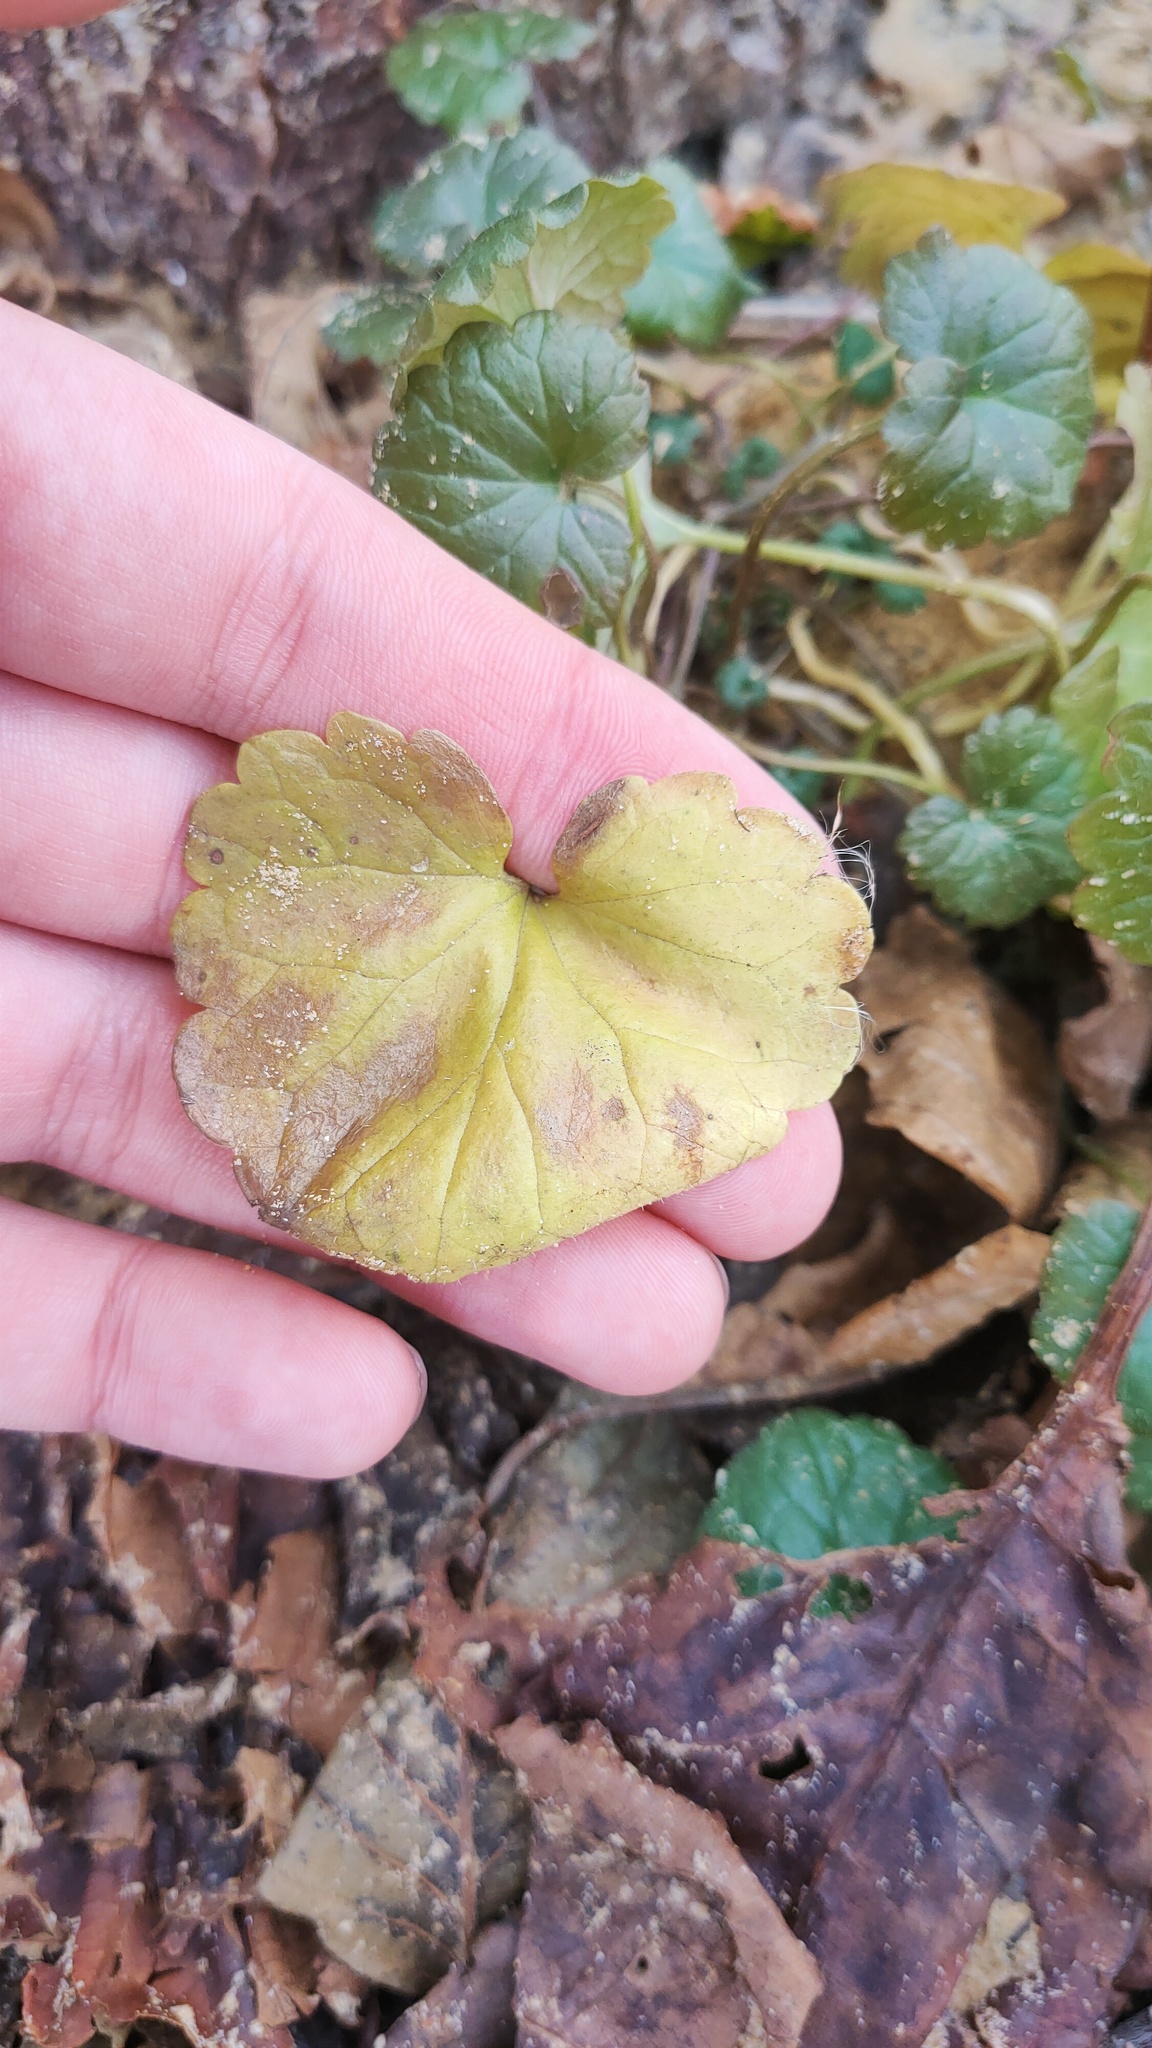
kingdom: Plantae
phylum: Tracheophyta
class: Magnoliopsida
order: Lamiales
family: Lamiaceae
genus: Glechoma
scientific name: Glechoma hederacea
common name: Ground ivy
